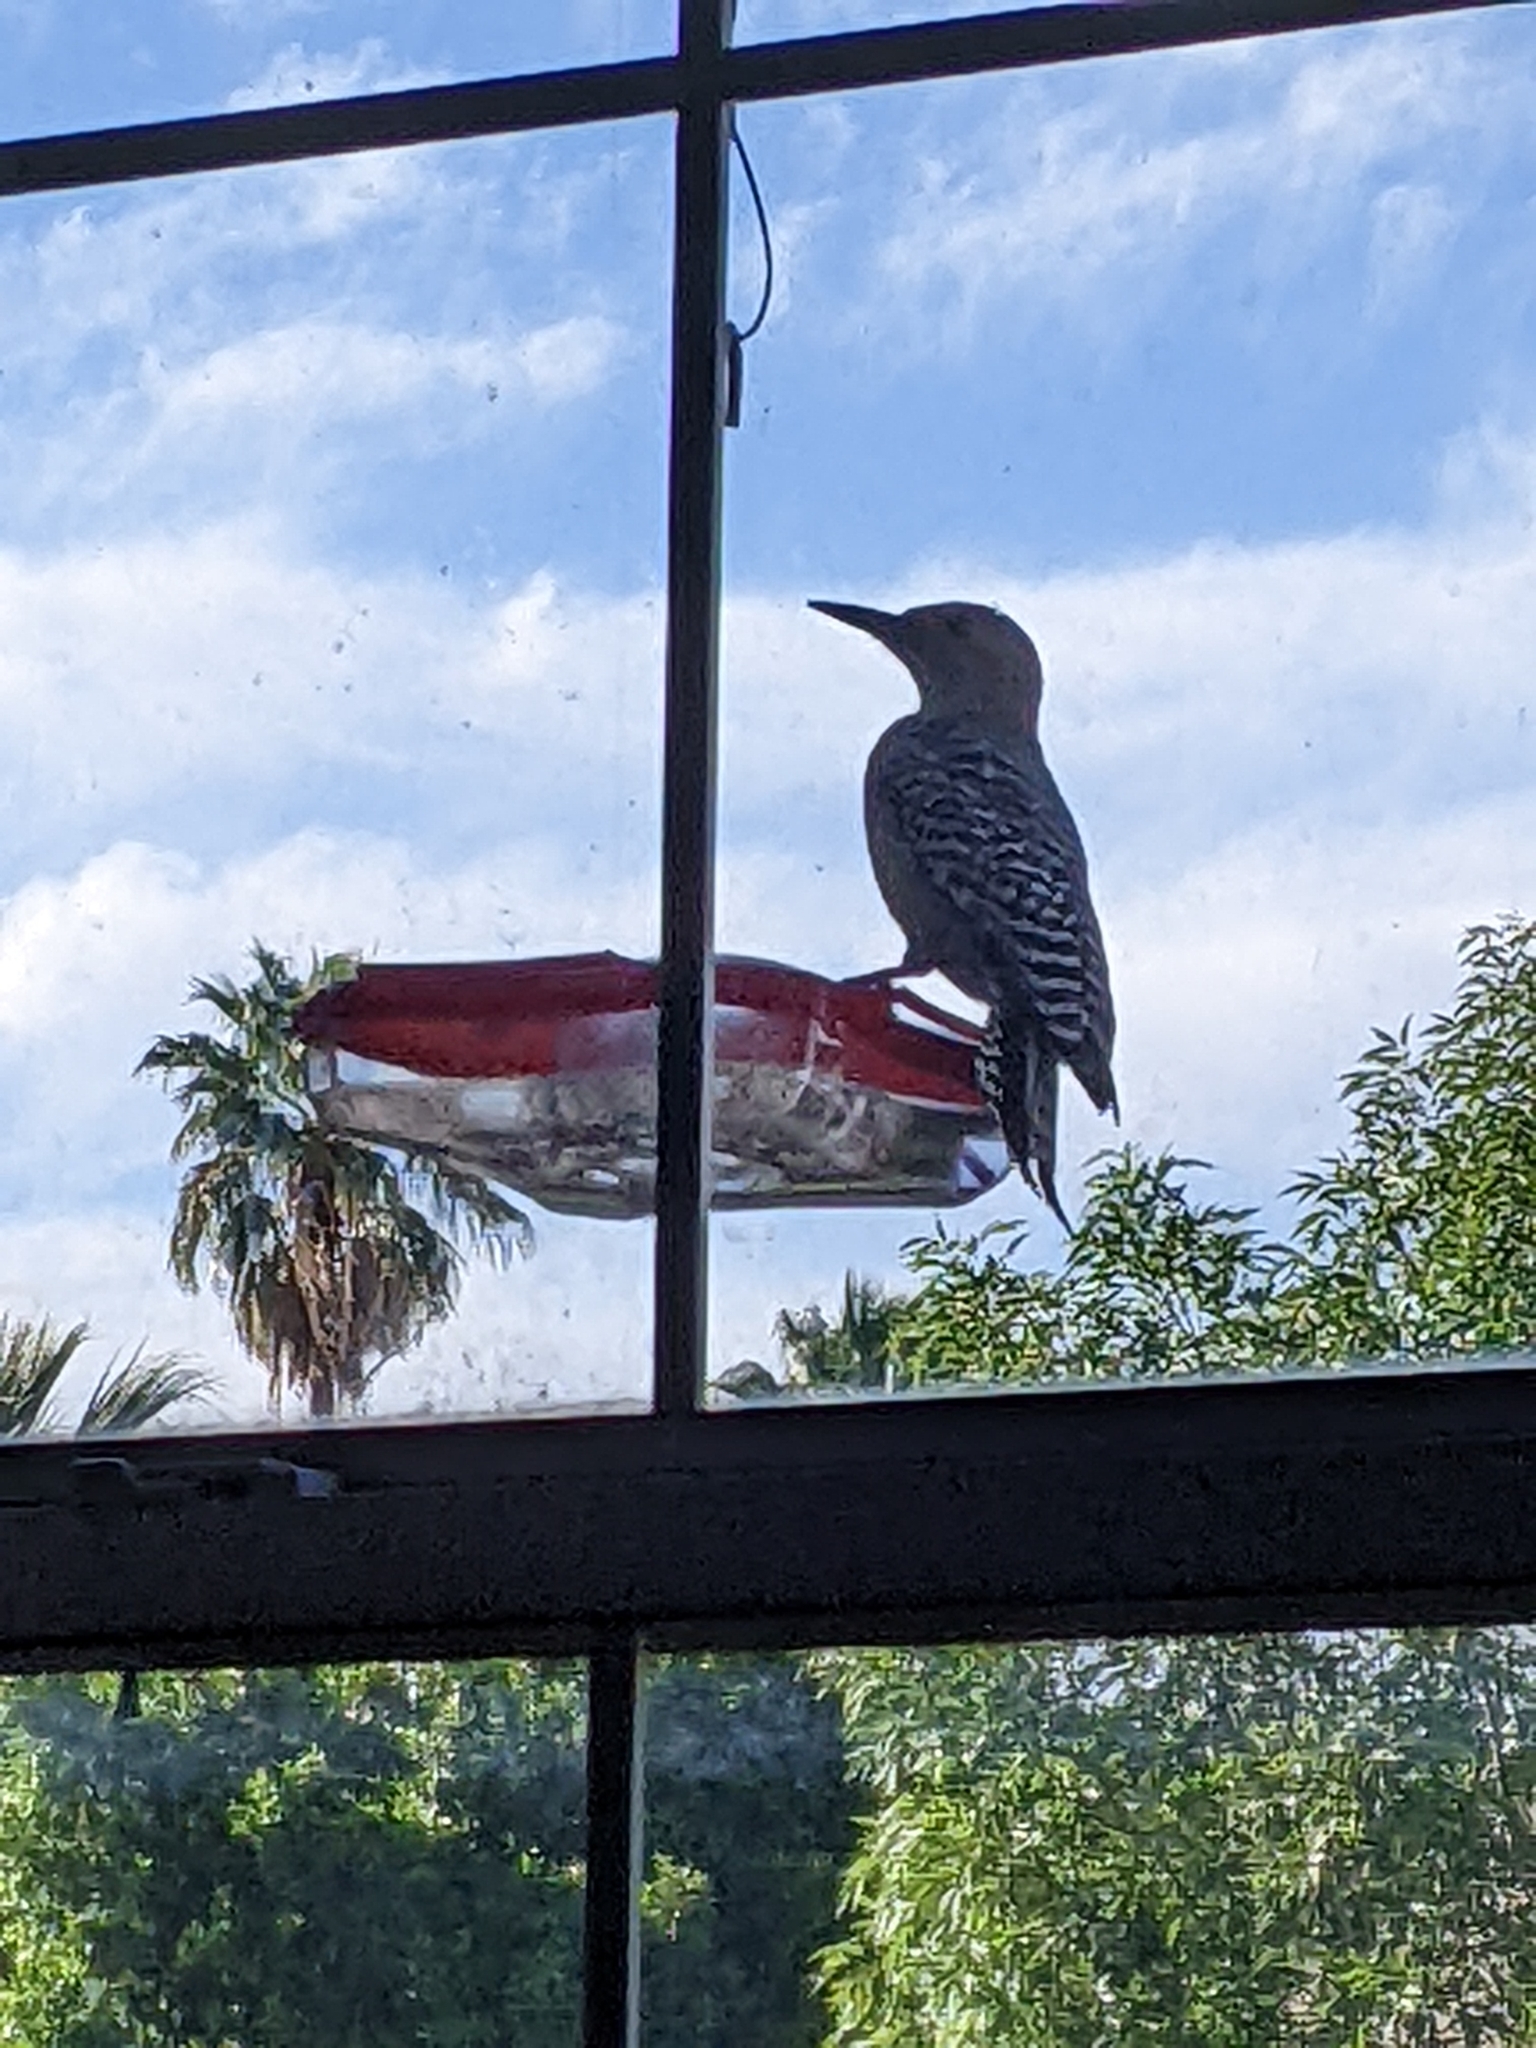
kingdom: Animalia
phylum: Chordata
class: Aves
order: Piciformes
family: Picidae
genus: Melanerpes
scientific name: Melanerpes uropygialis
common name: Gila woodpecker
